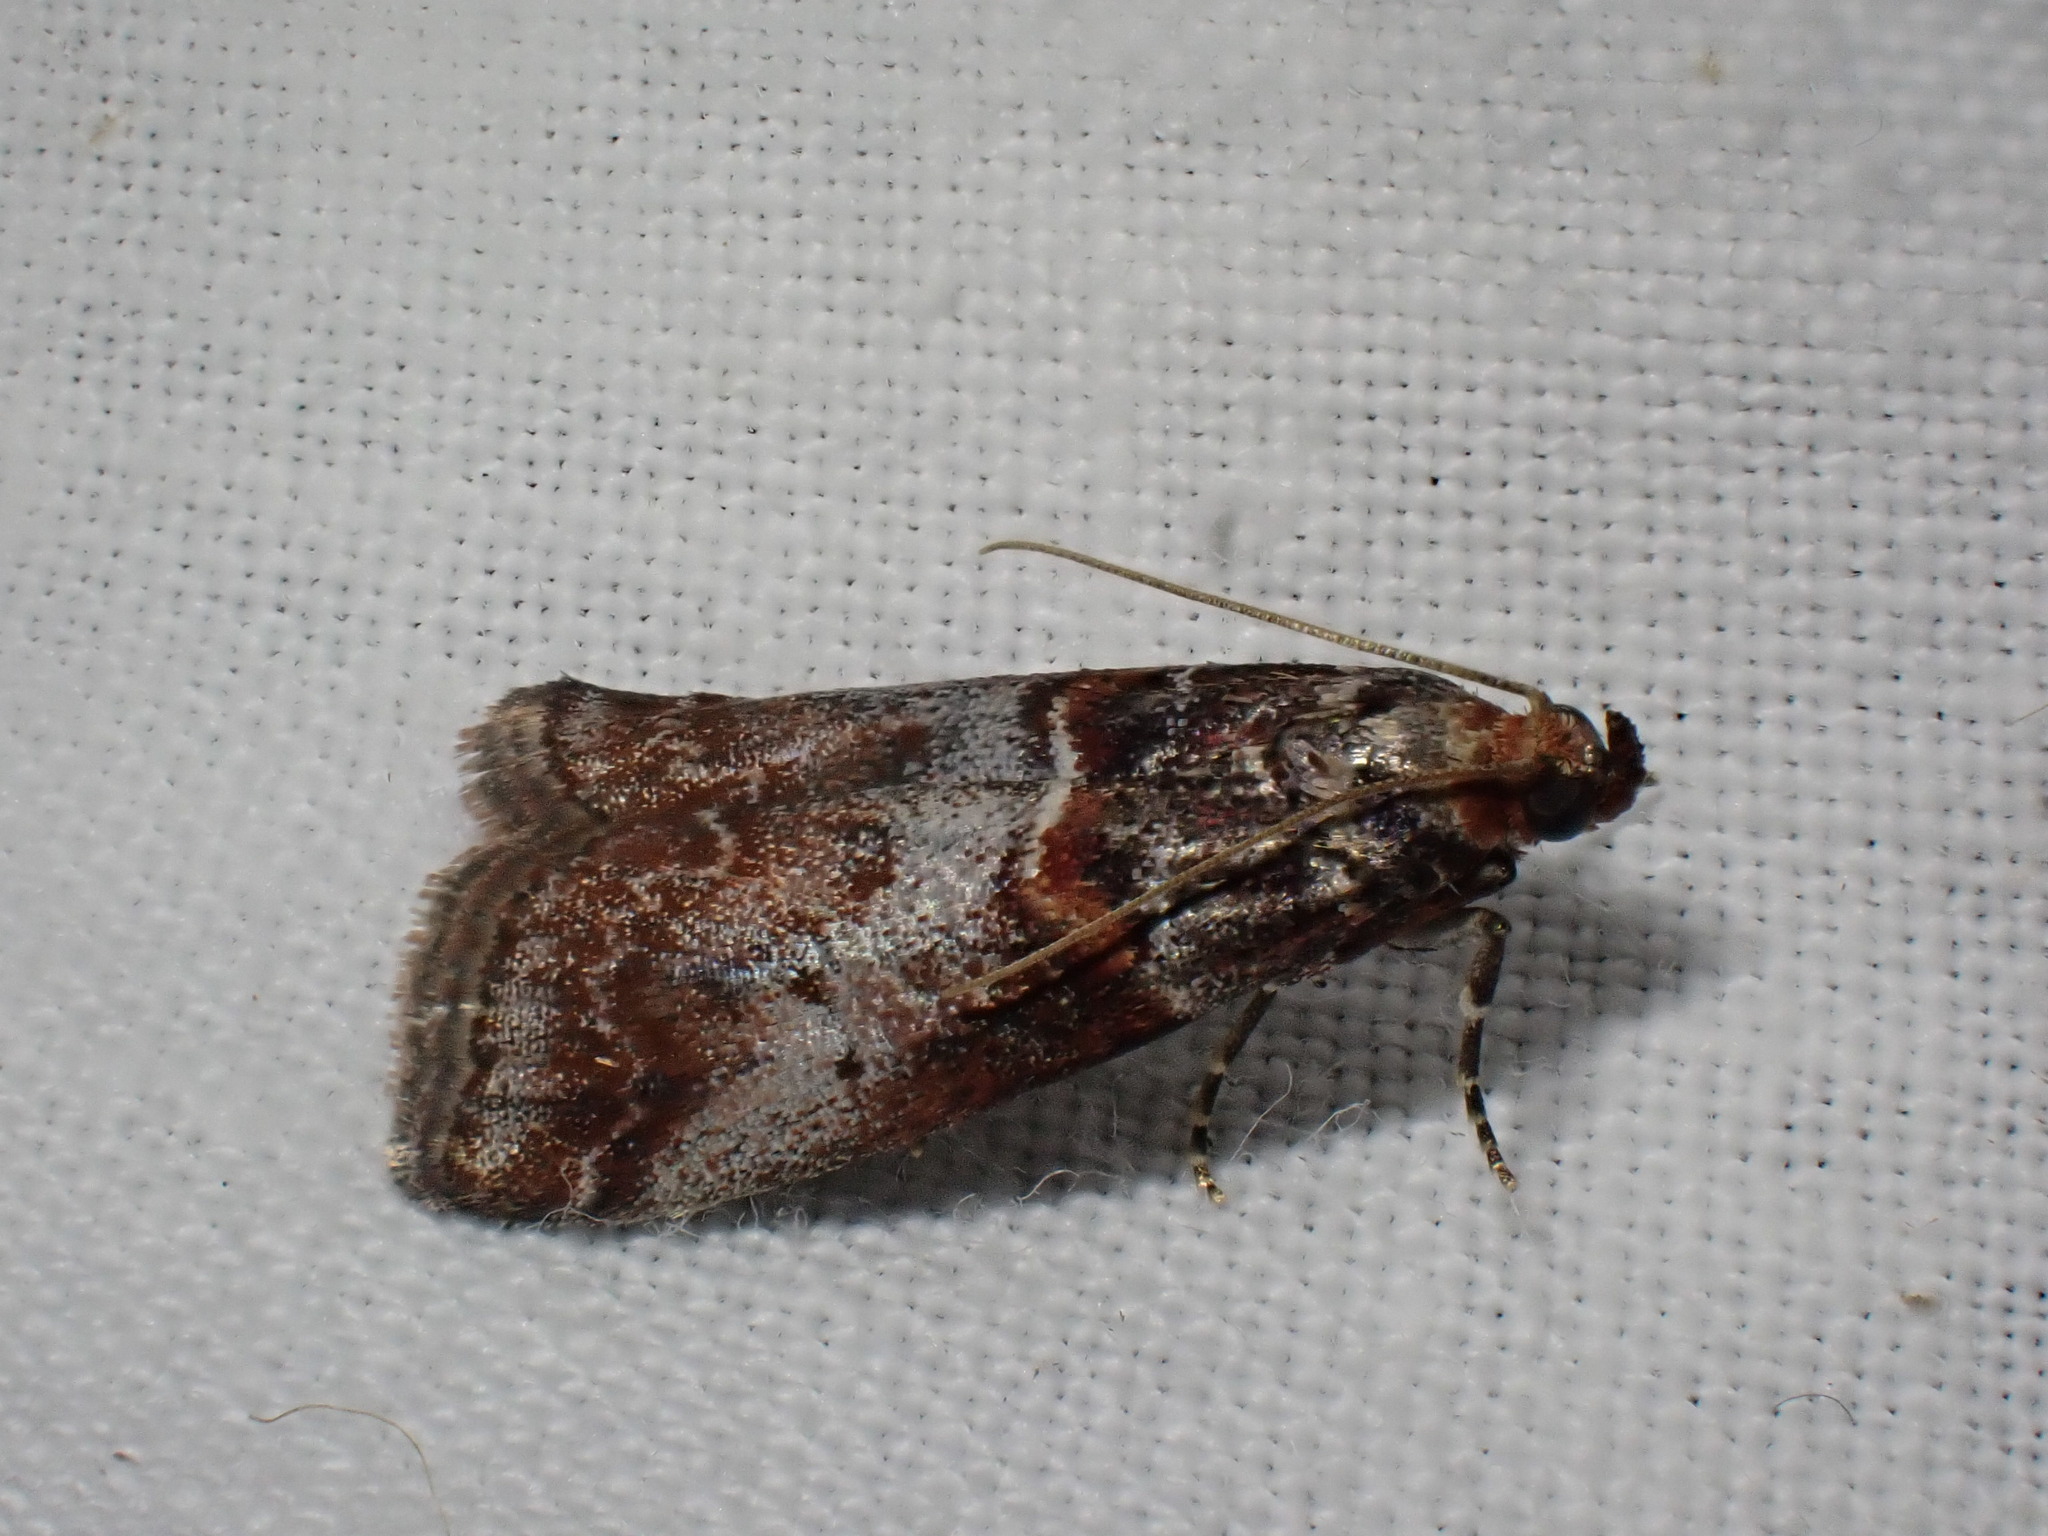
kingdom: Animalia
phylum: Arthropoda
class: Insecta
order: Lepidoptera
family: Pyralidae
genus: Acrobasis
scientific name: Acrobasis advenella
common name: Grey knot-horn
